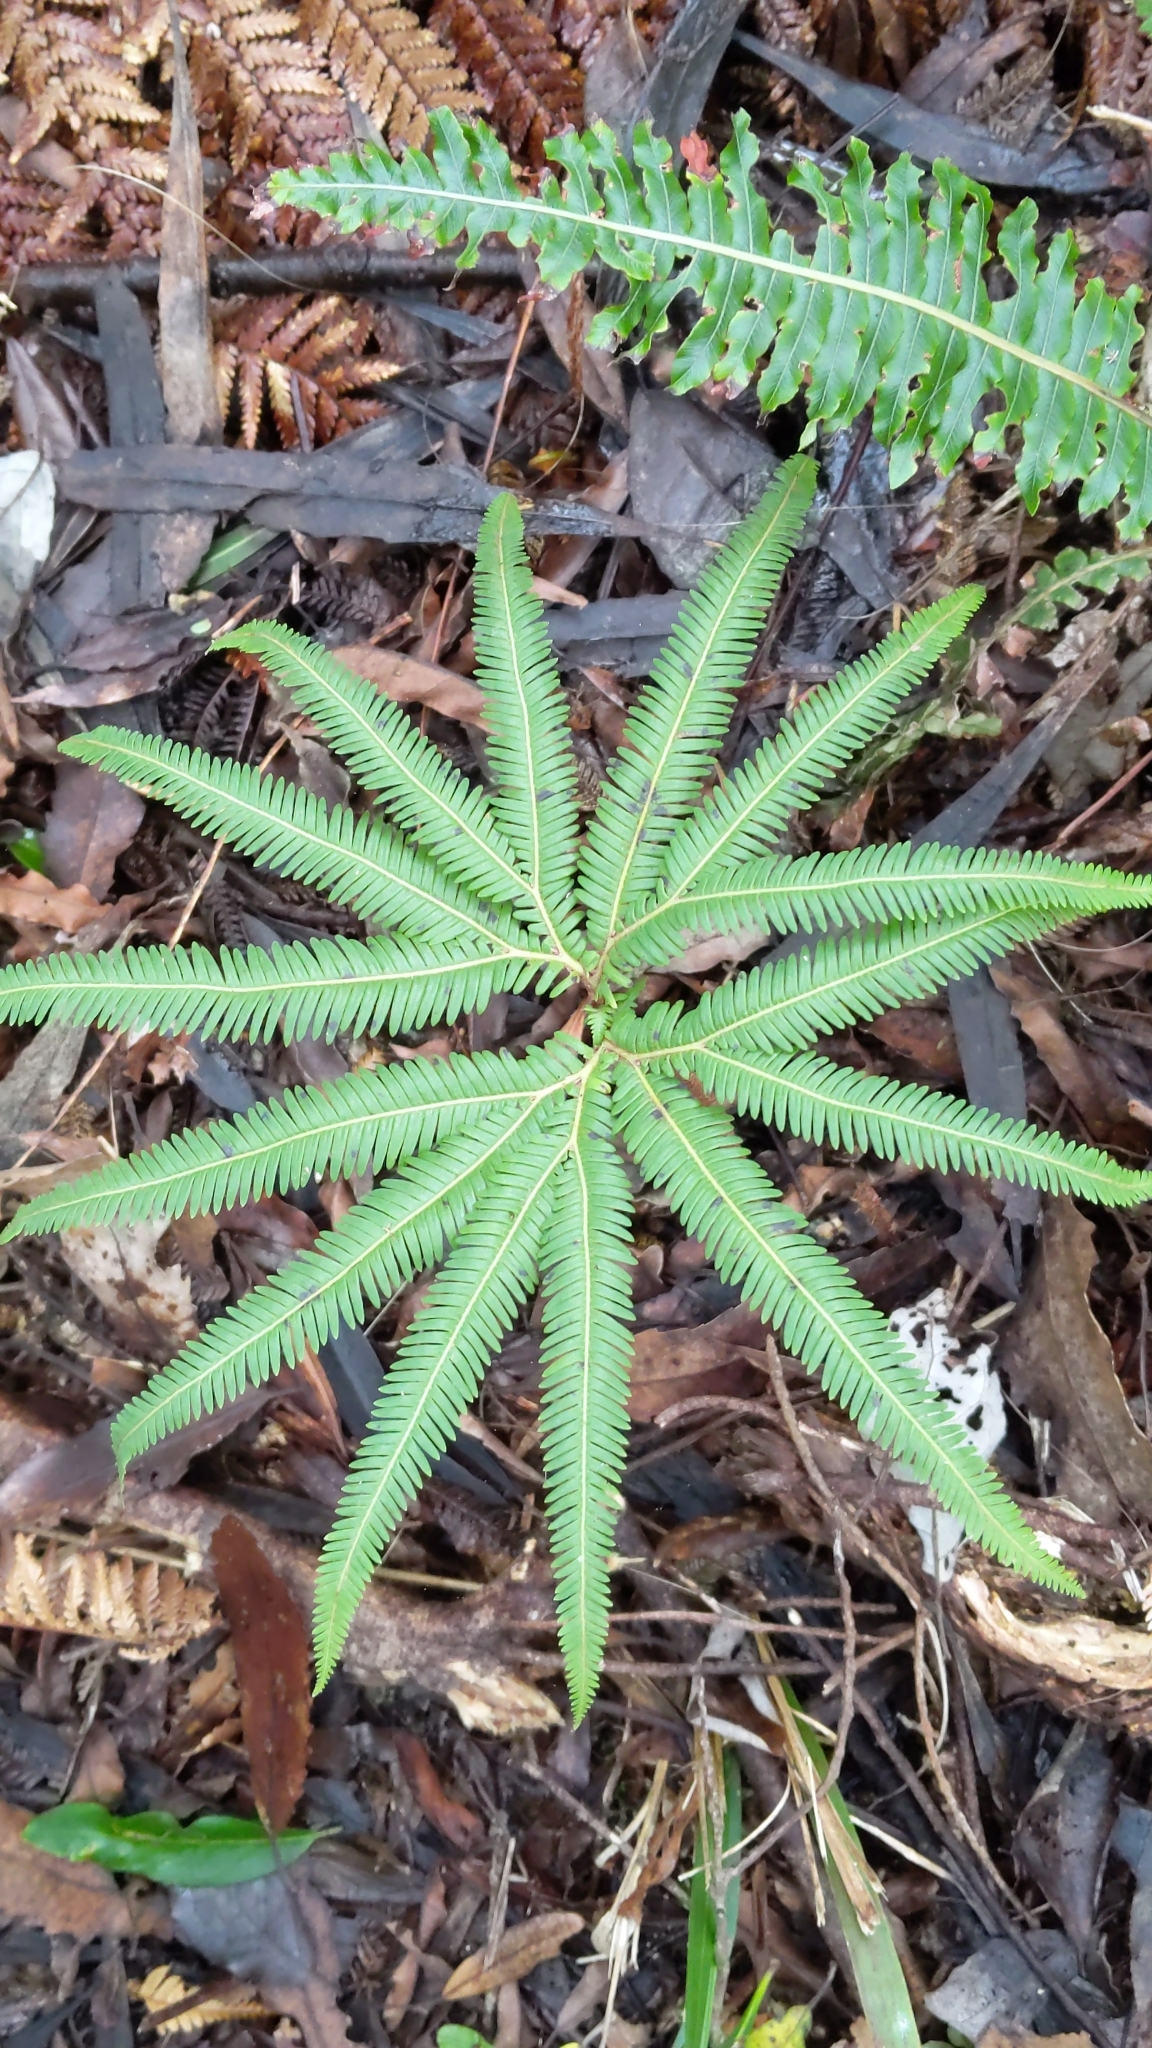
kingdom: Plantae
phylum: Tracheophyta
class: Polypodiopsida
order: Gleicheniales
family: Gleicheniaceae
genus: Sticherus
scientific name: Sticherus cunninghamii
